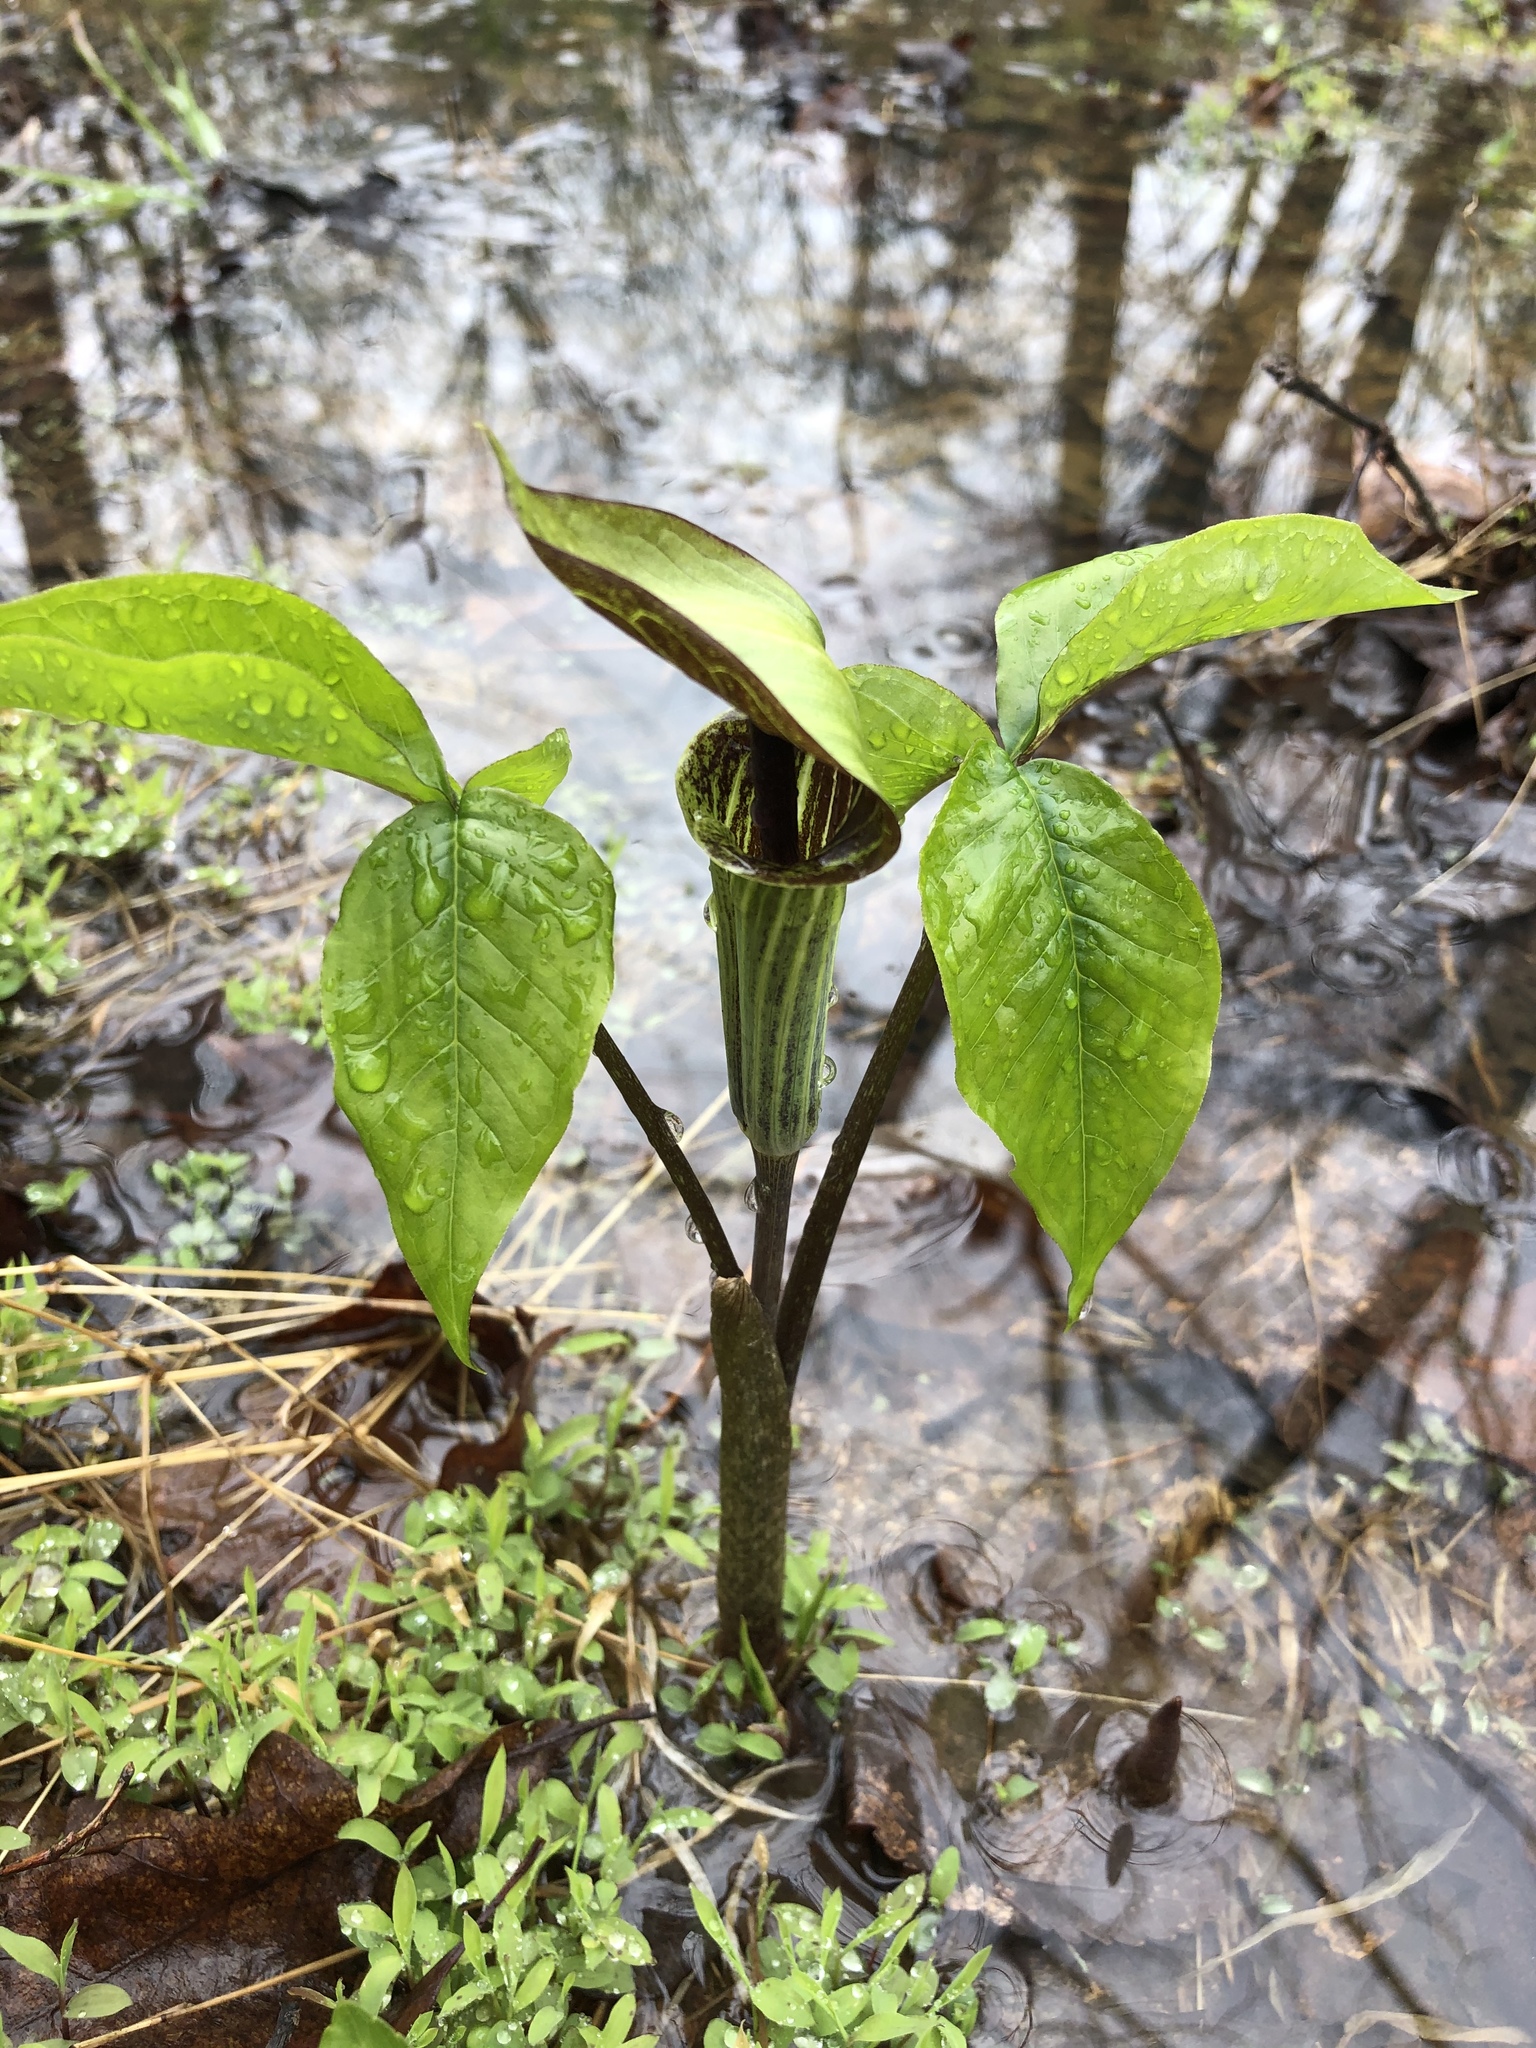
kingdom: Plantae
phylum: Tracheophyta
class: Liliopsida
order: Alismatales
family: Araceae
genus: Arisaema
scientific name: Arisaema triphyllum
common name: Jack-in-the-pulpit
